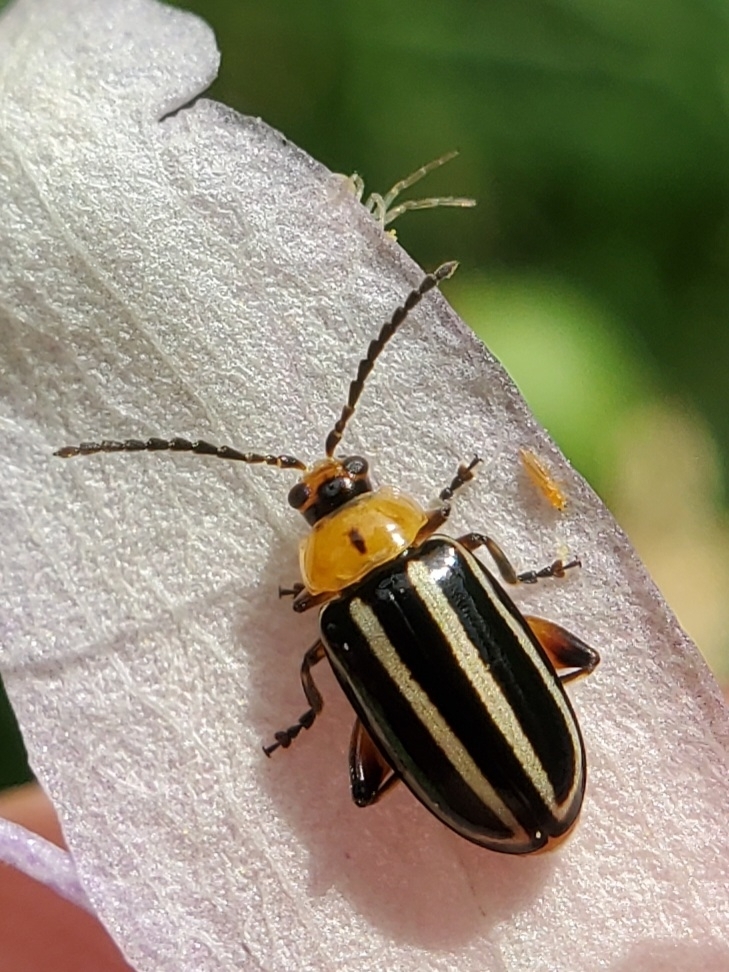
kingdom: Animalia
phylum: Arthropoda
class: Insecta
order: Coleoptera
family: Chrysomelidae
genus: Disonycha
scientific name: Disonycha glabrata
